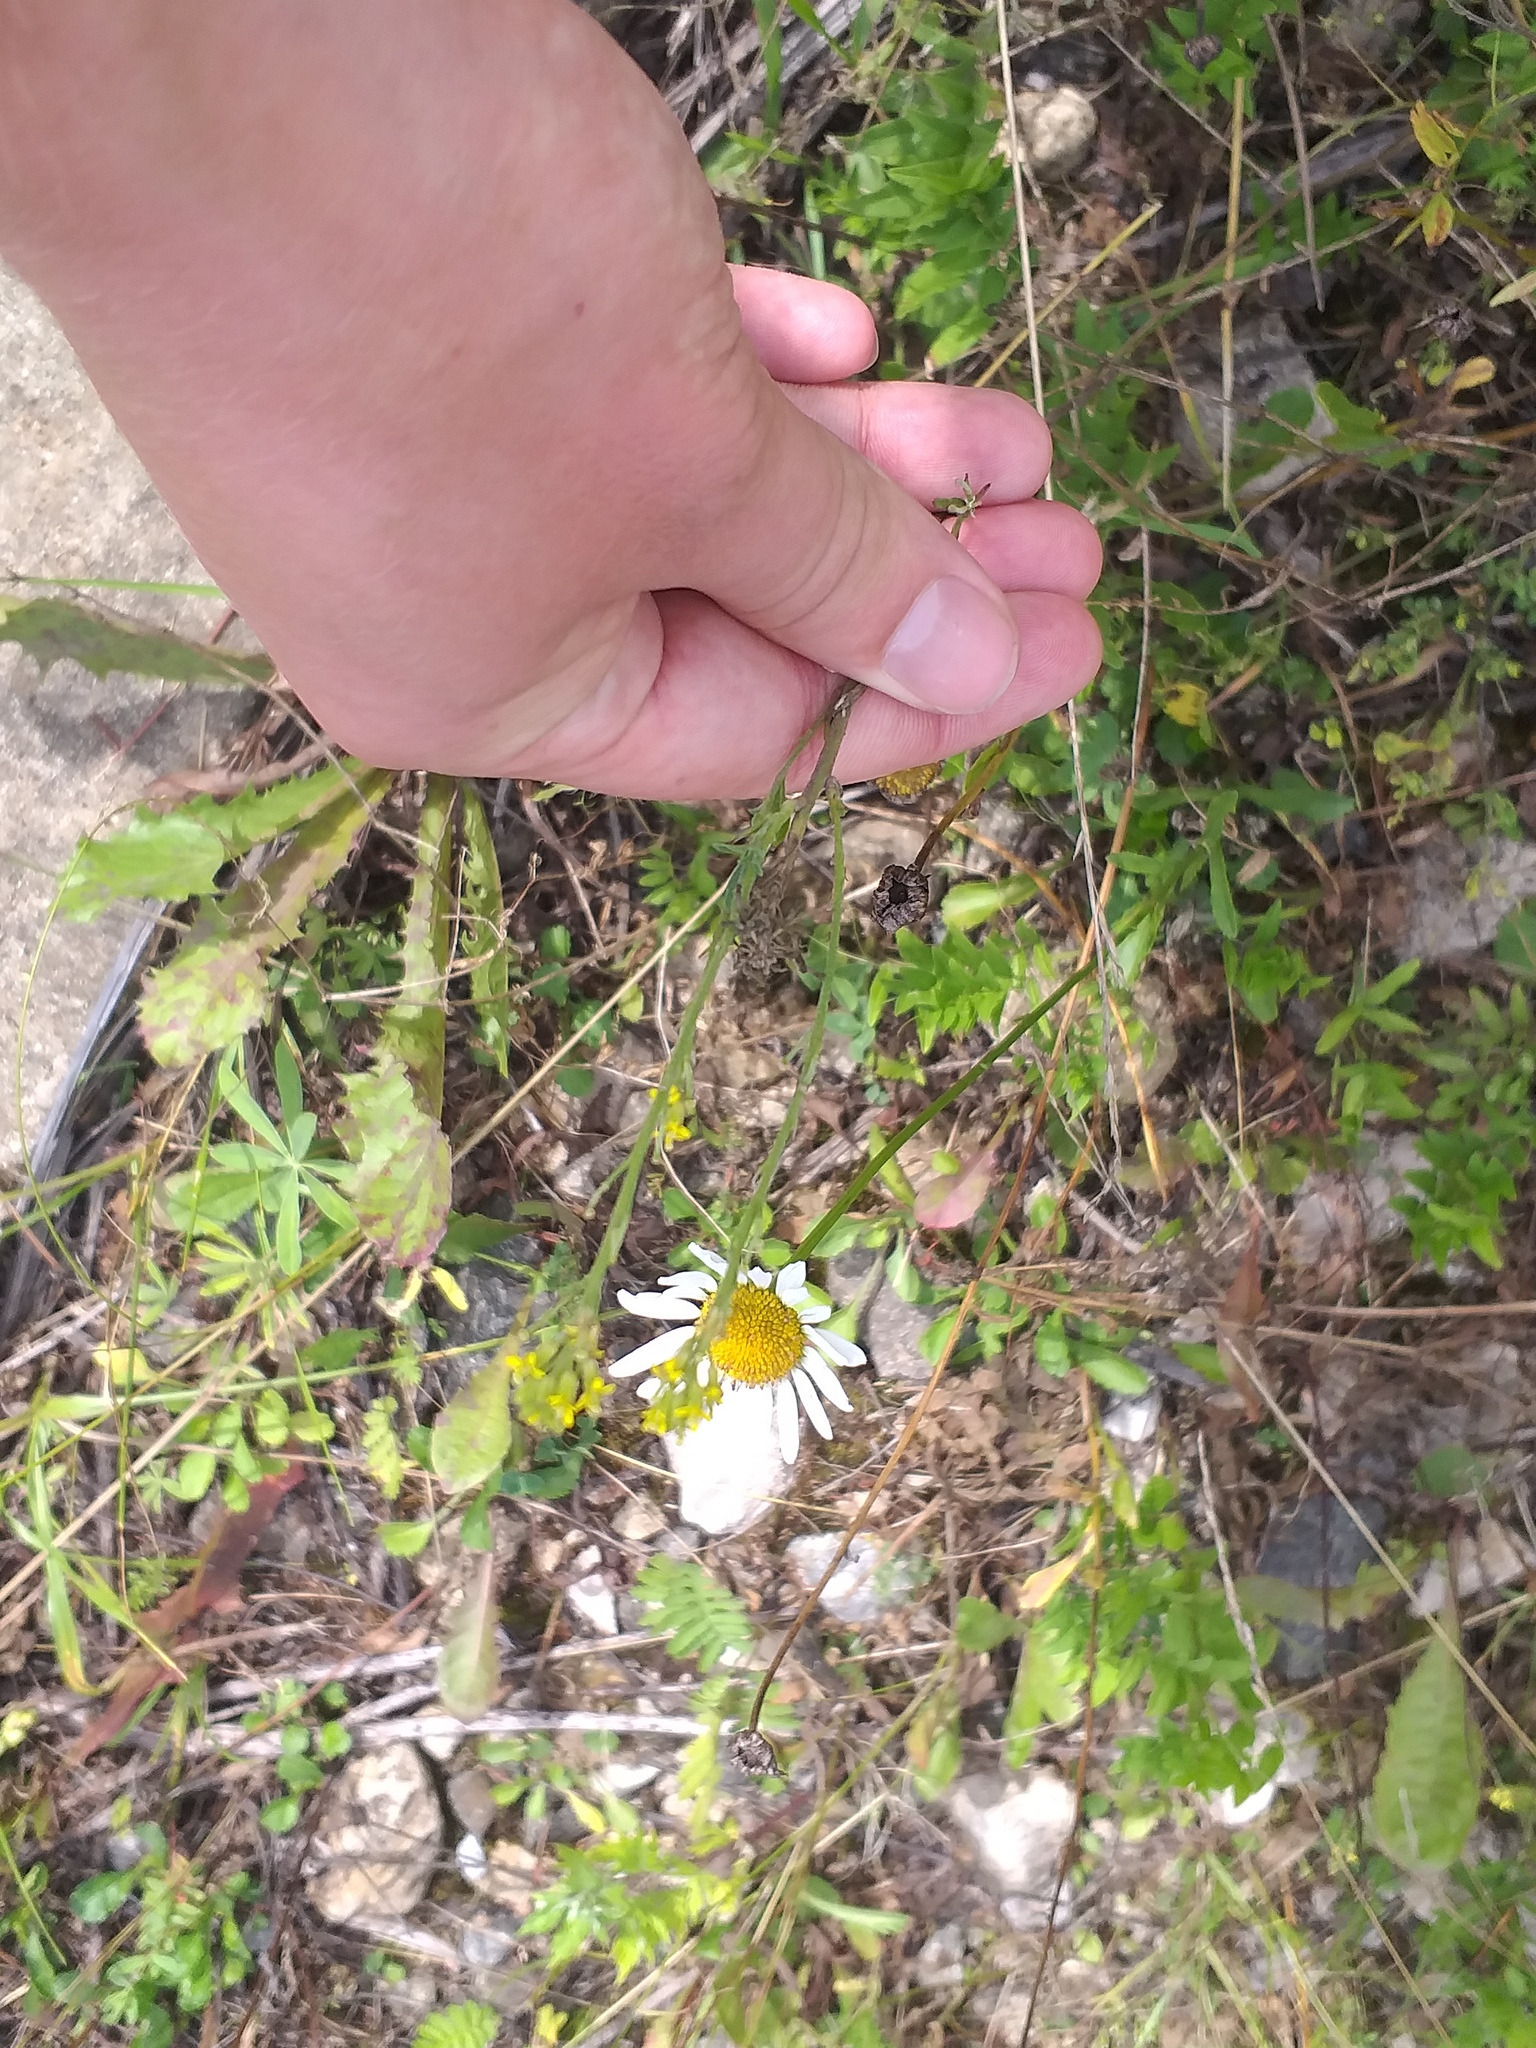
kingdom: Plantae
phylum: Tracheophyta
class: Magnoliopsida
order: Brassicales
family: Brassicaceae
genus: Erysimum
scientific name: Erysimum hieraciifolium
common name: European wallflower
